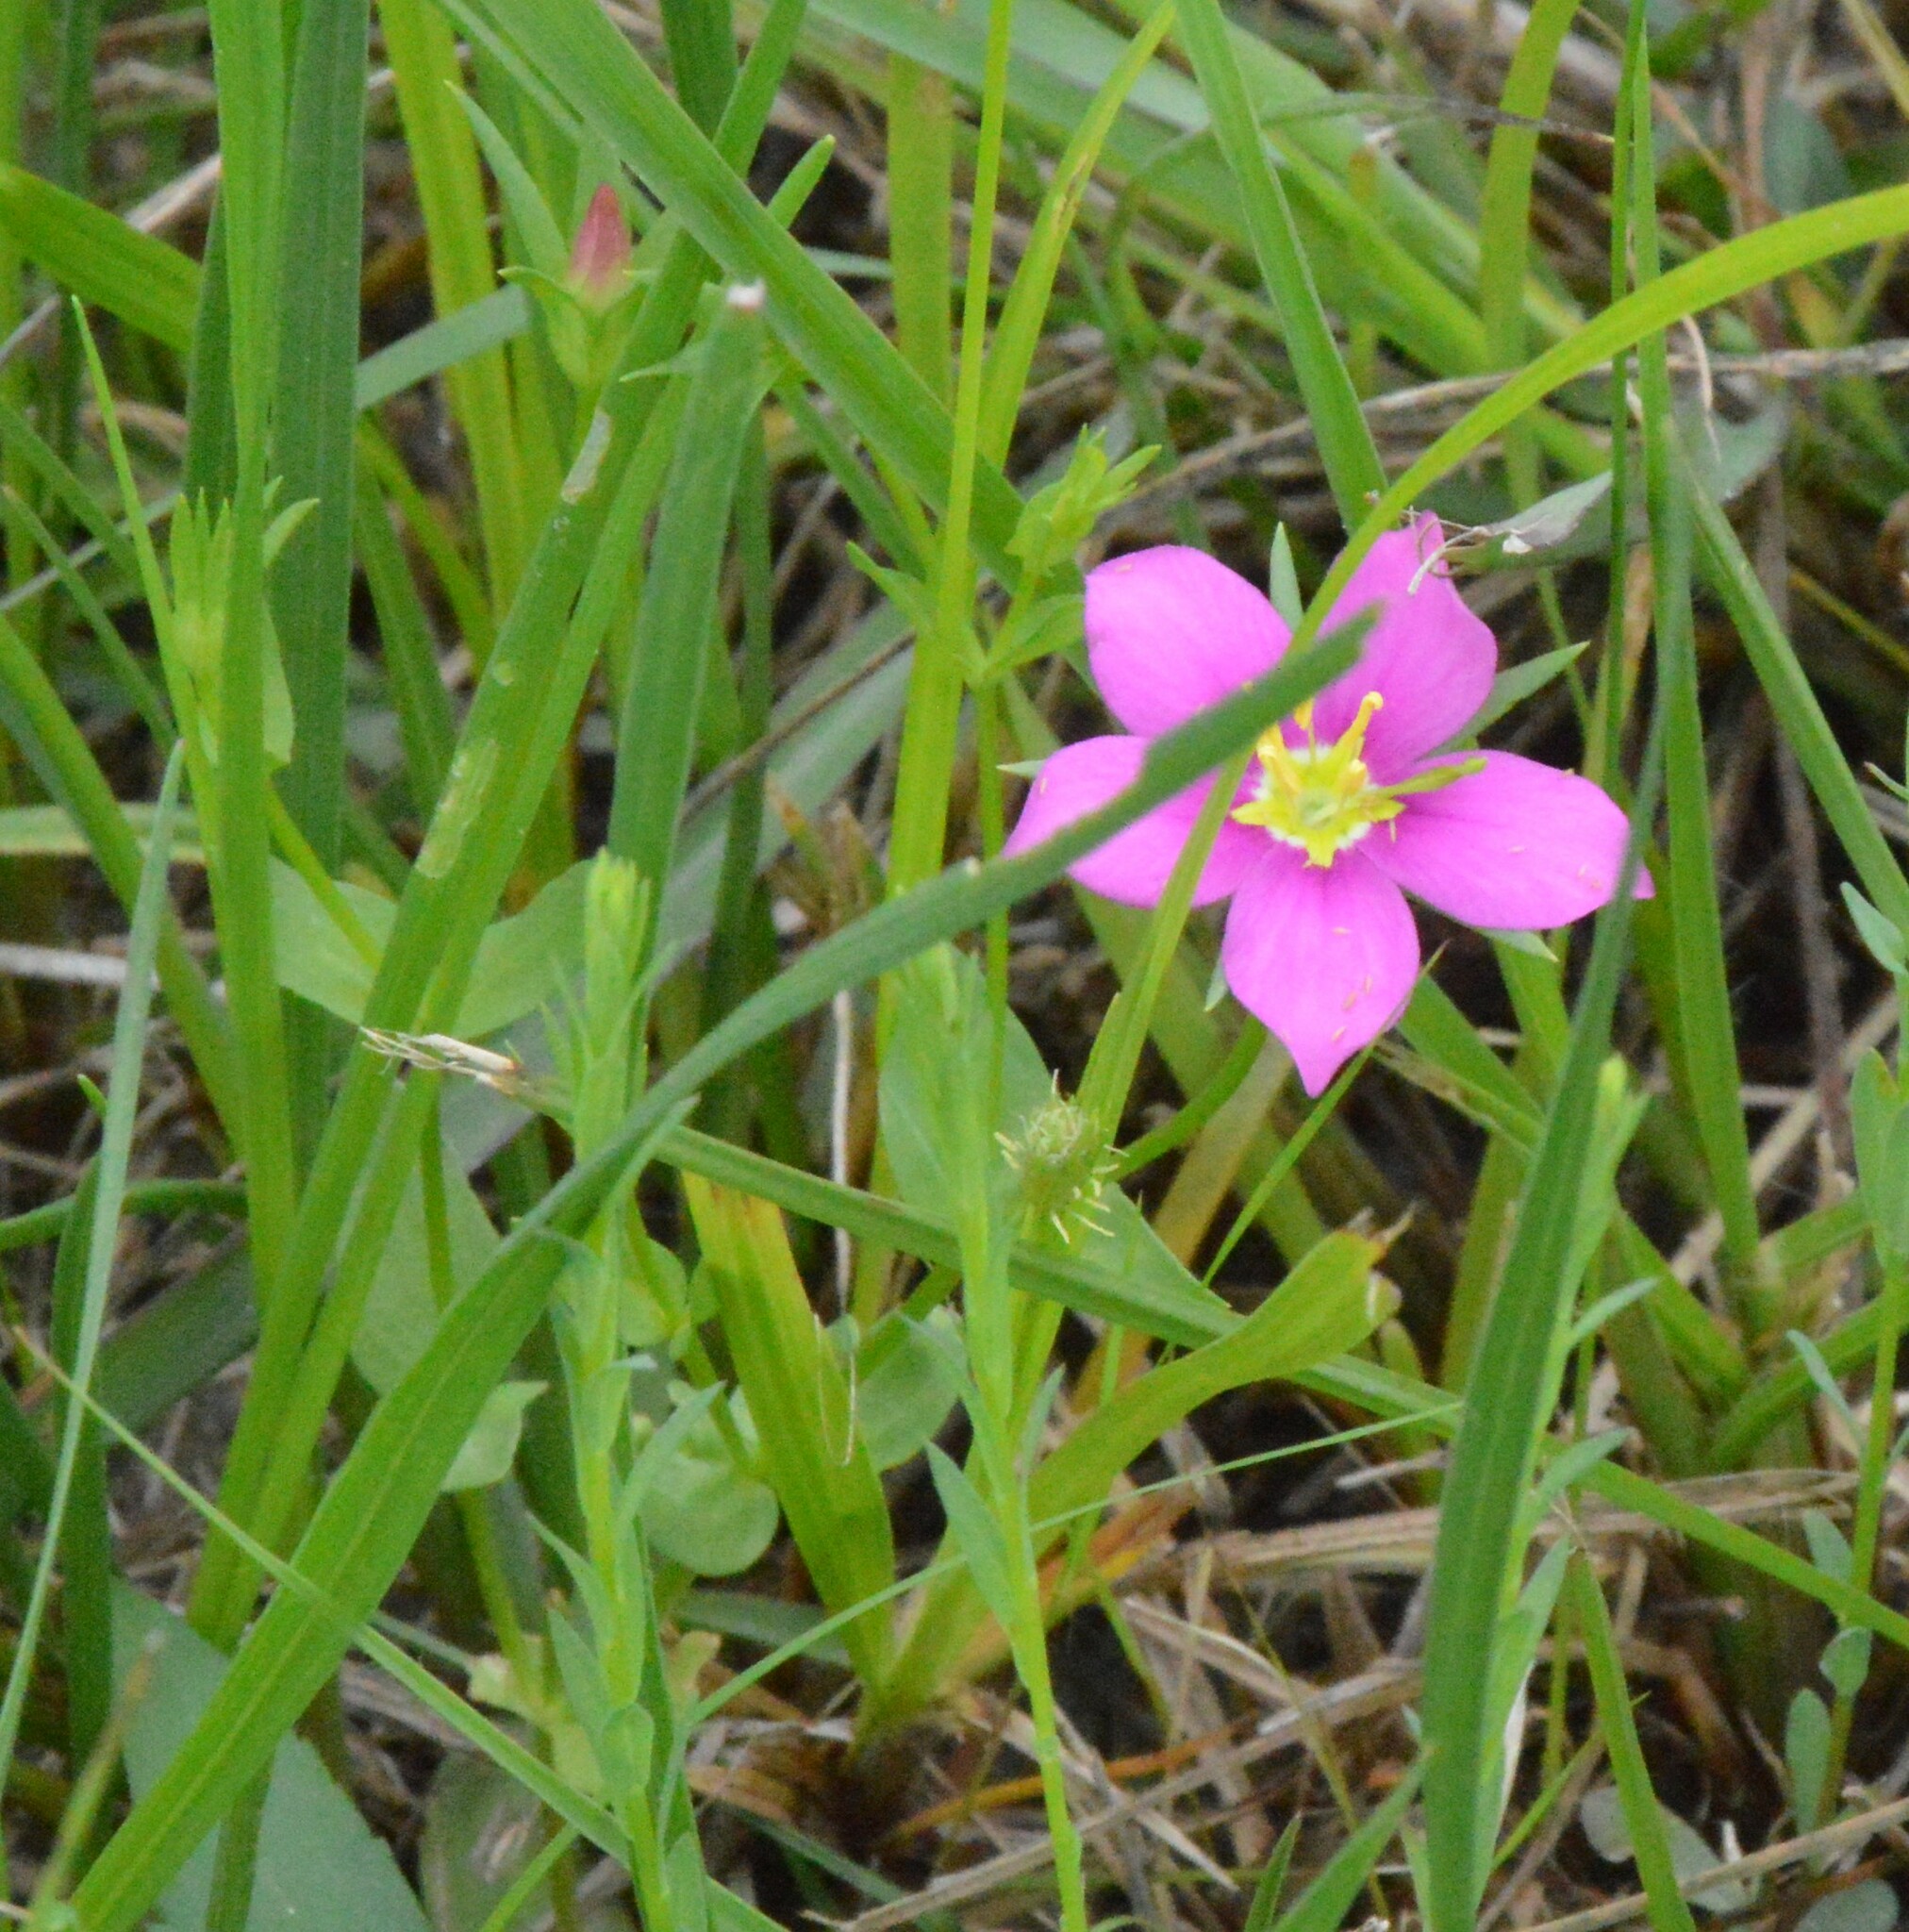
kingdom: Plantae
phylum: Tracheophyta
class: Magnoliopsida
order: Gentianales
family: Gentianaceae
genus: Sabatia
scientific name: Sabatia campestris
